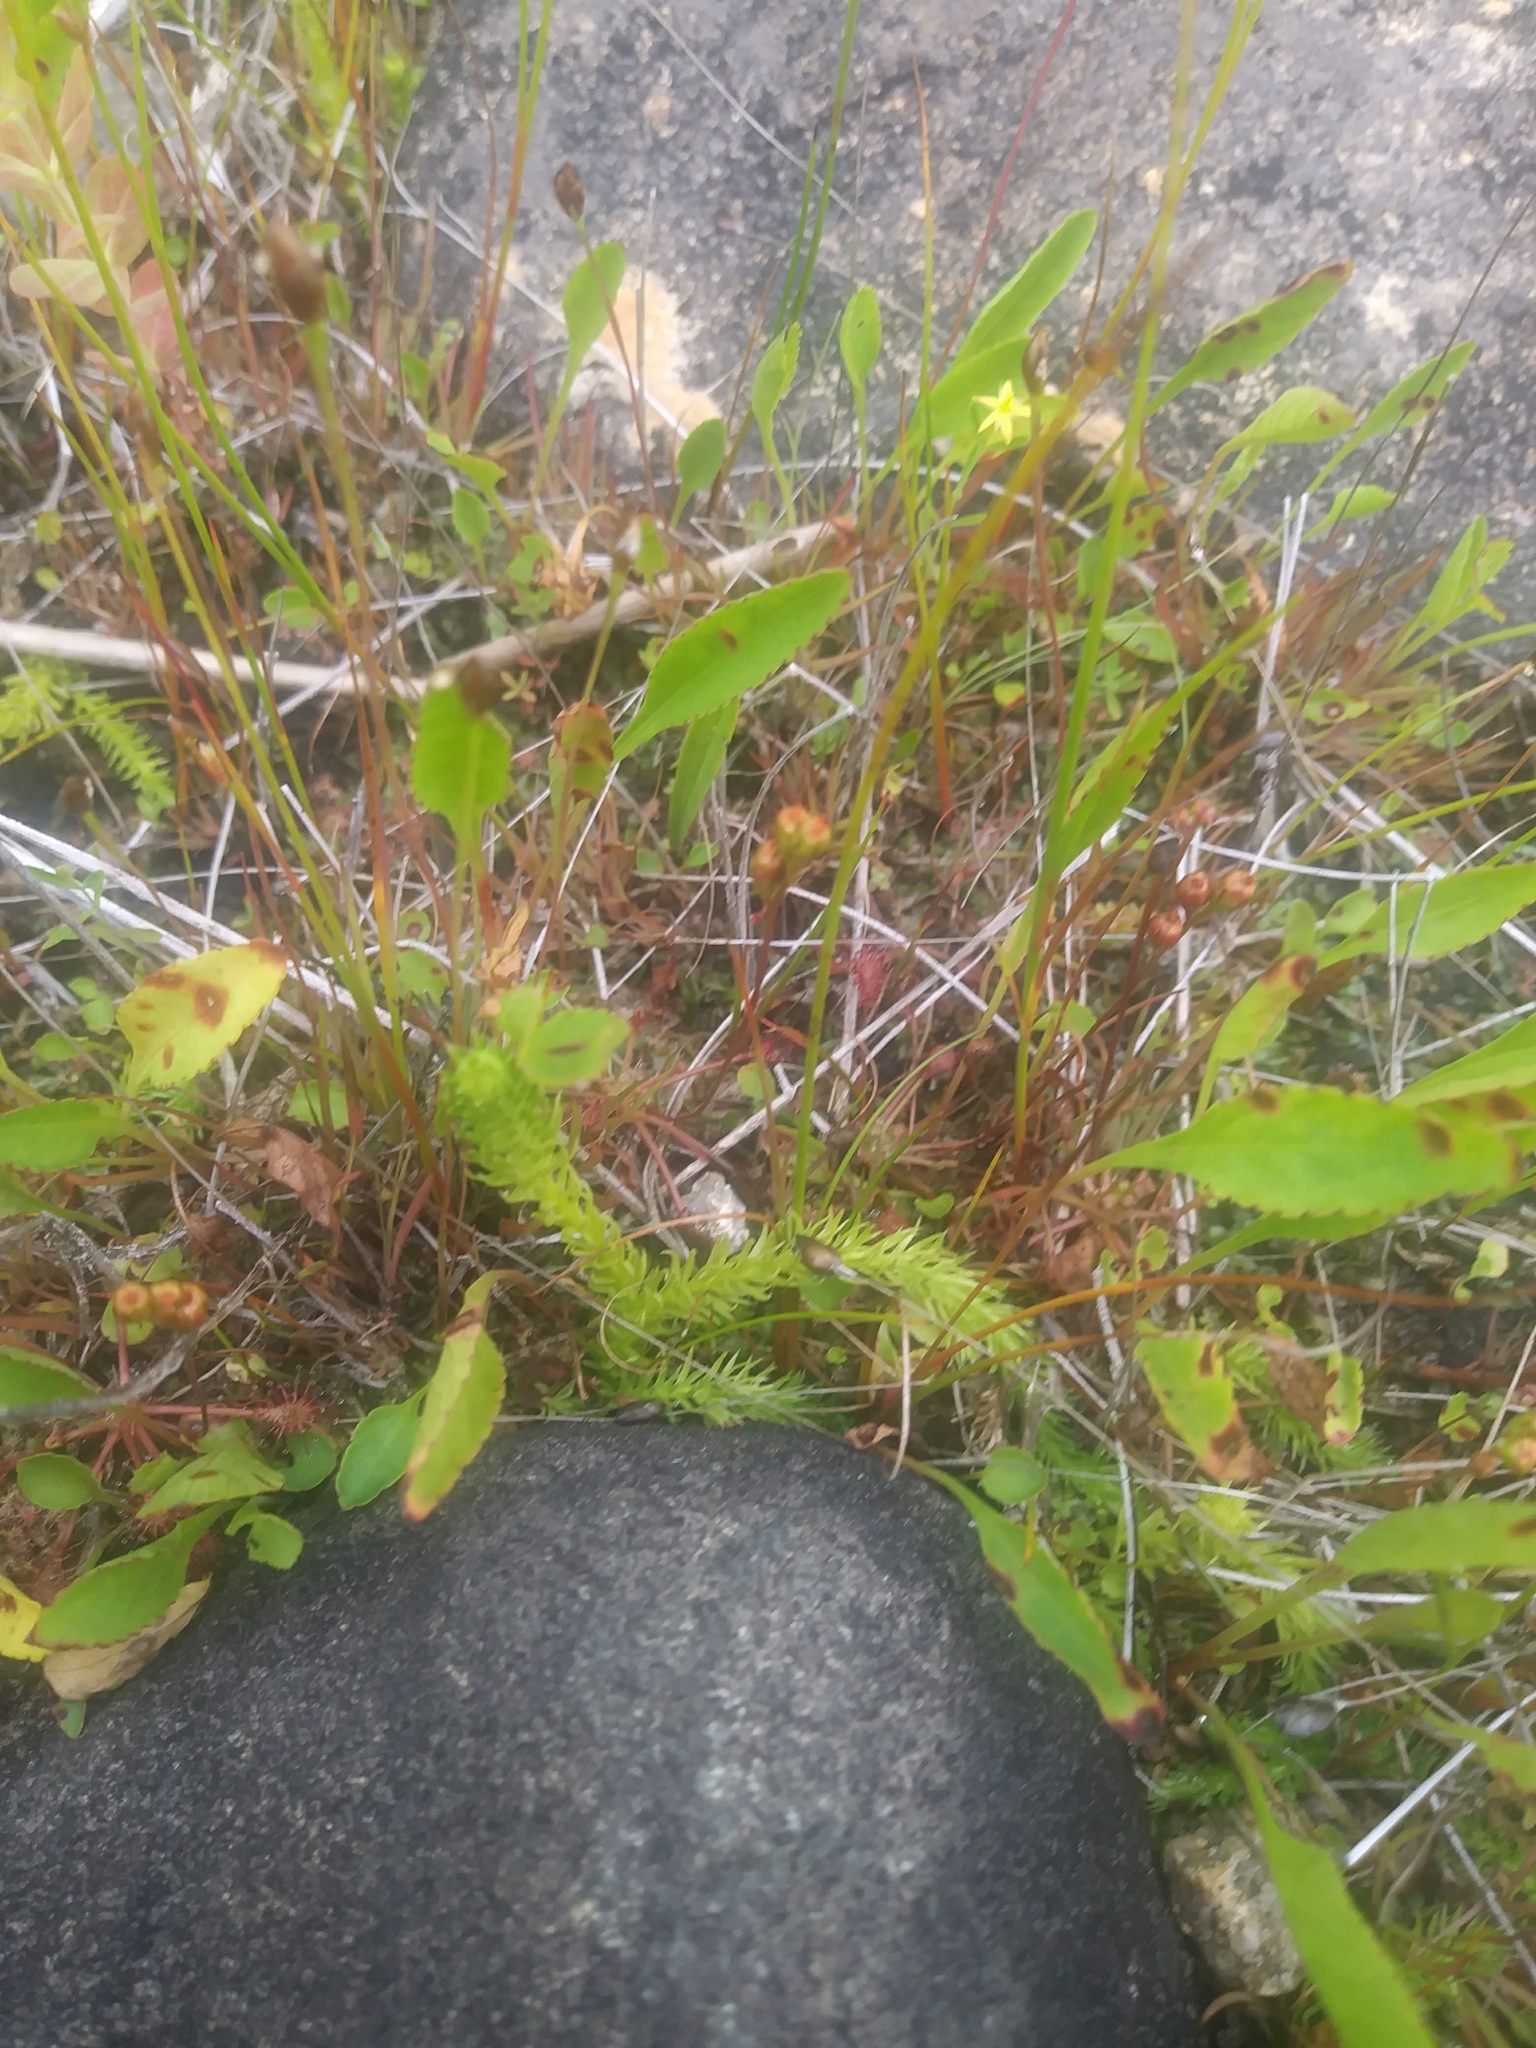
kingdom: Plantae
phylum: Tracheophyta
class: Lycopodiopsida
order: Lycopodiales
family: Lycopodiaceae
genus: Lycopodiella
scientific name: Lycopodiella inundata
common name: Marsh clubmoss
